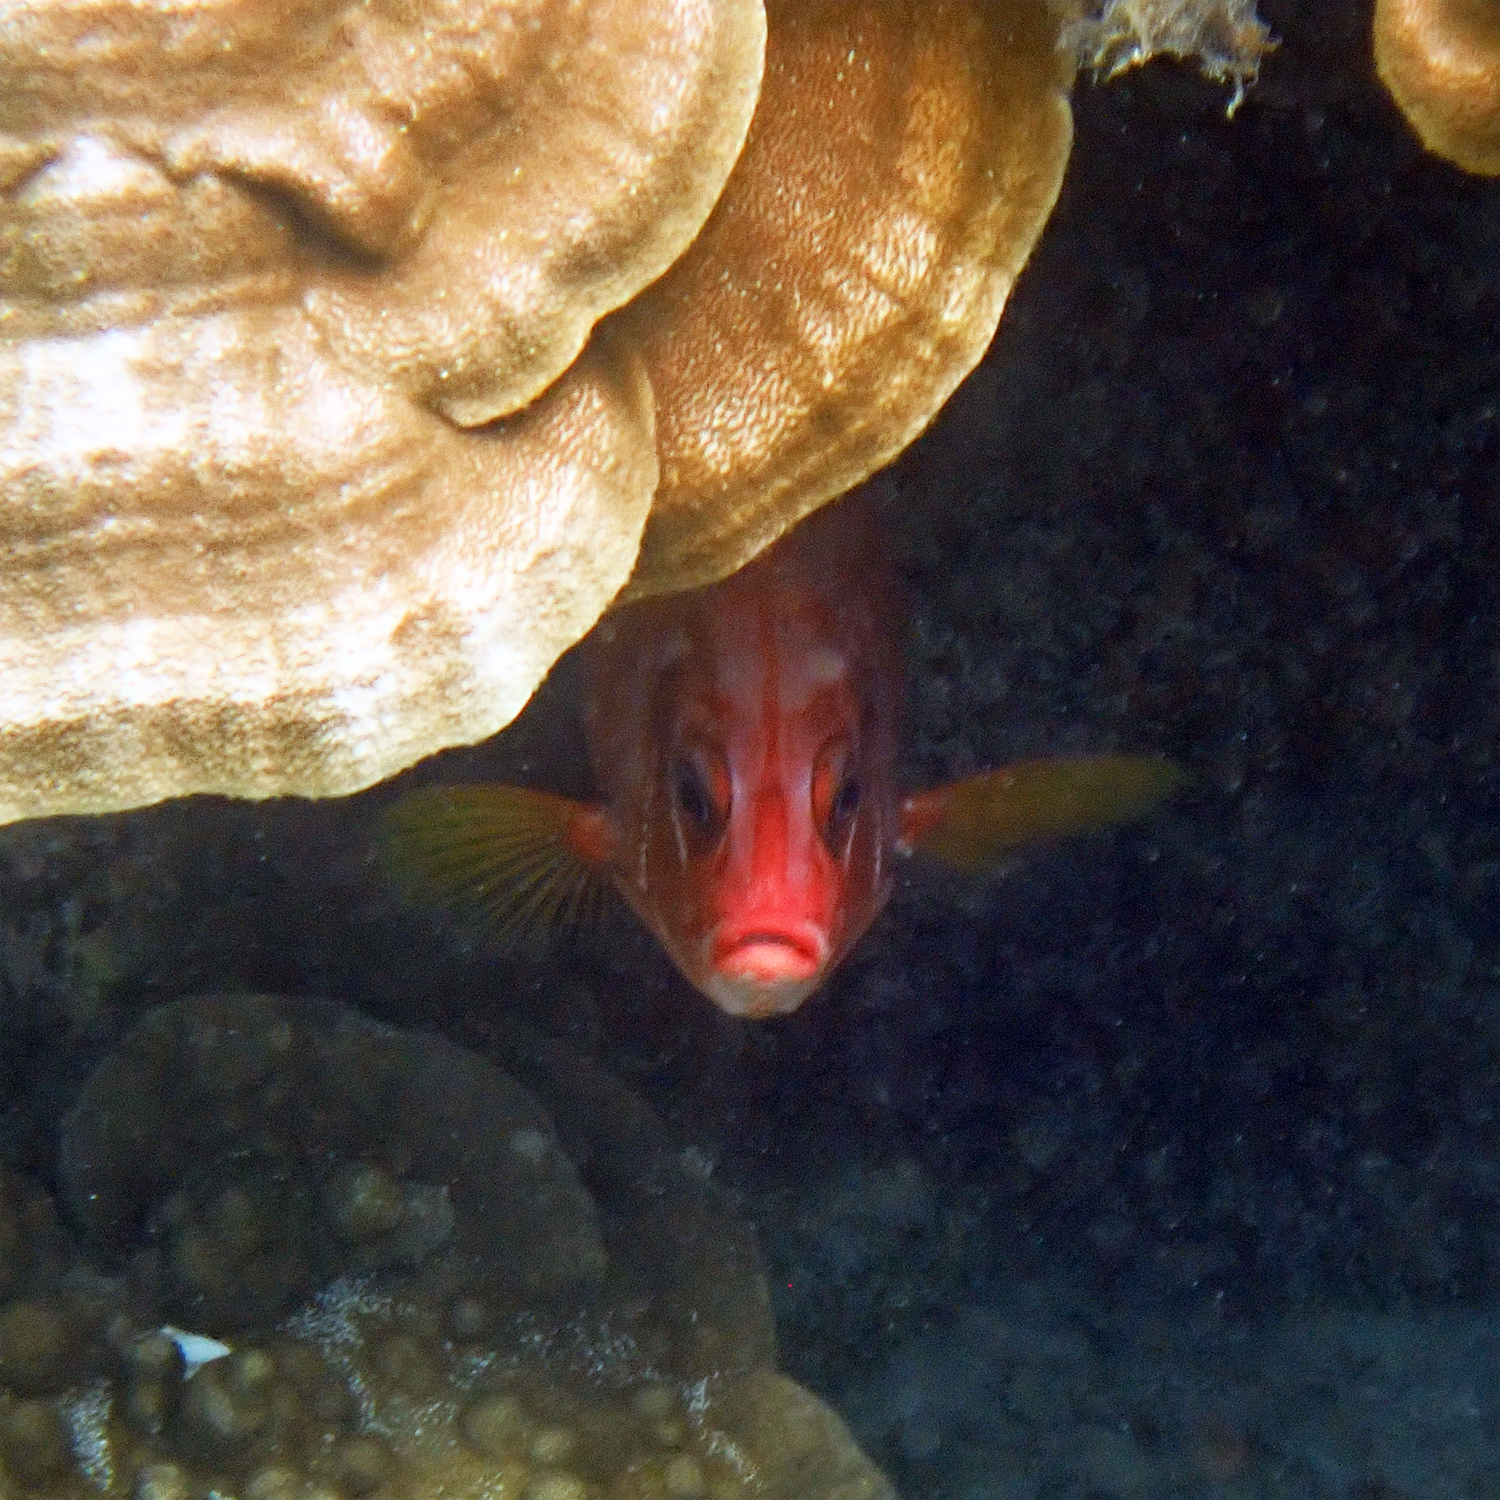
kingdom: Animalia
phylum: Chordata
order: Beryciformes
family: Holocentridae
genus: Sargocentron
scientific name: Sargocentron spiniferum
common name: Giant squirrelfish
